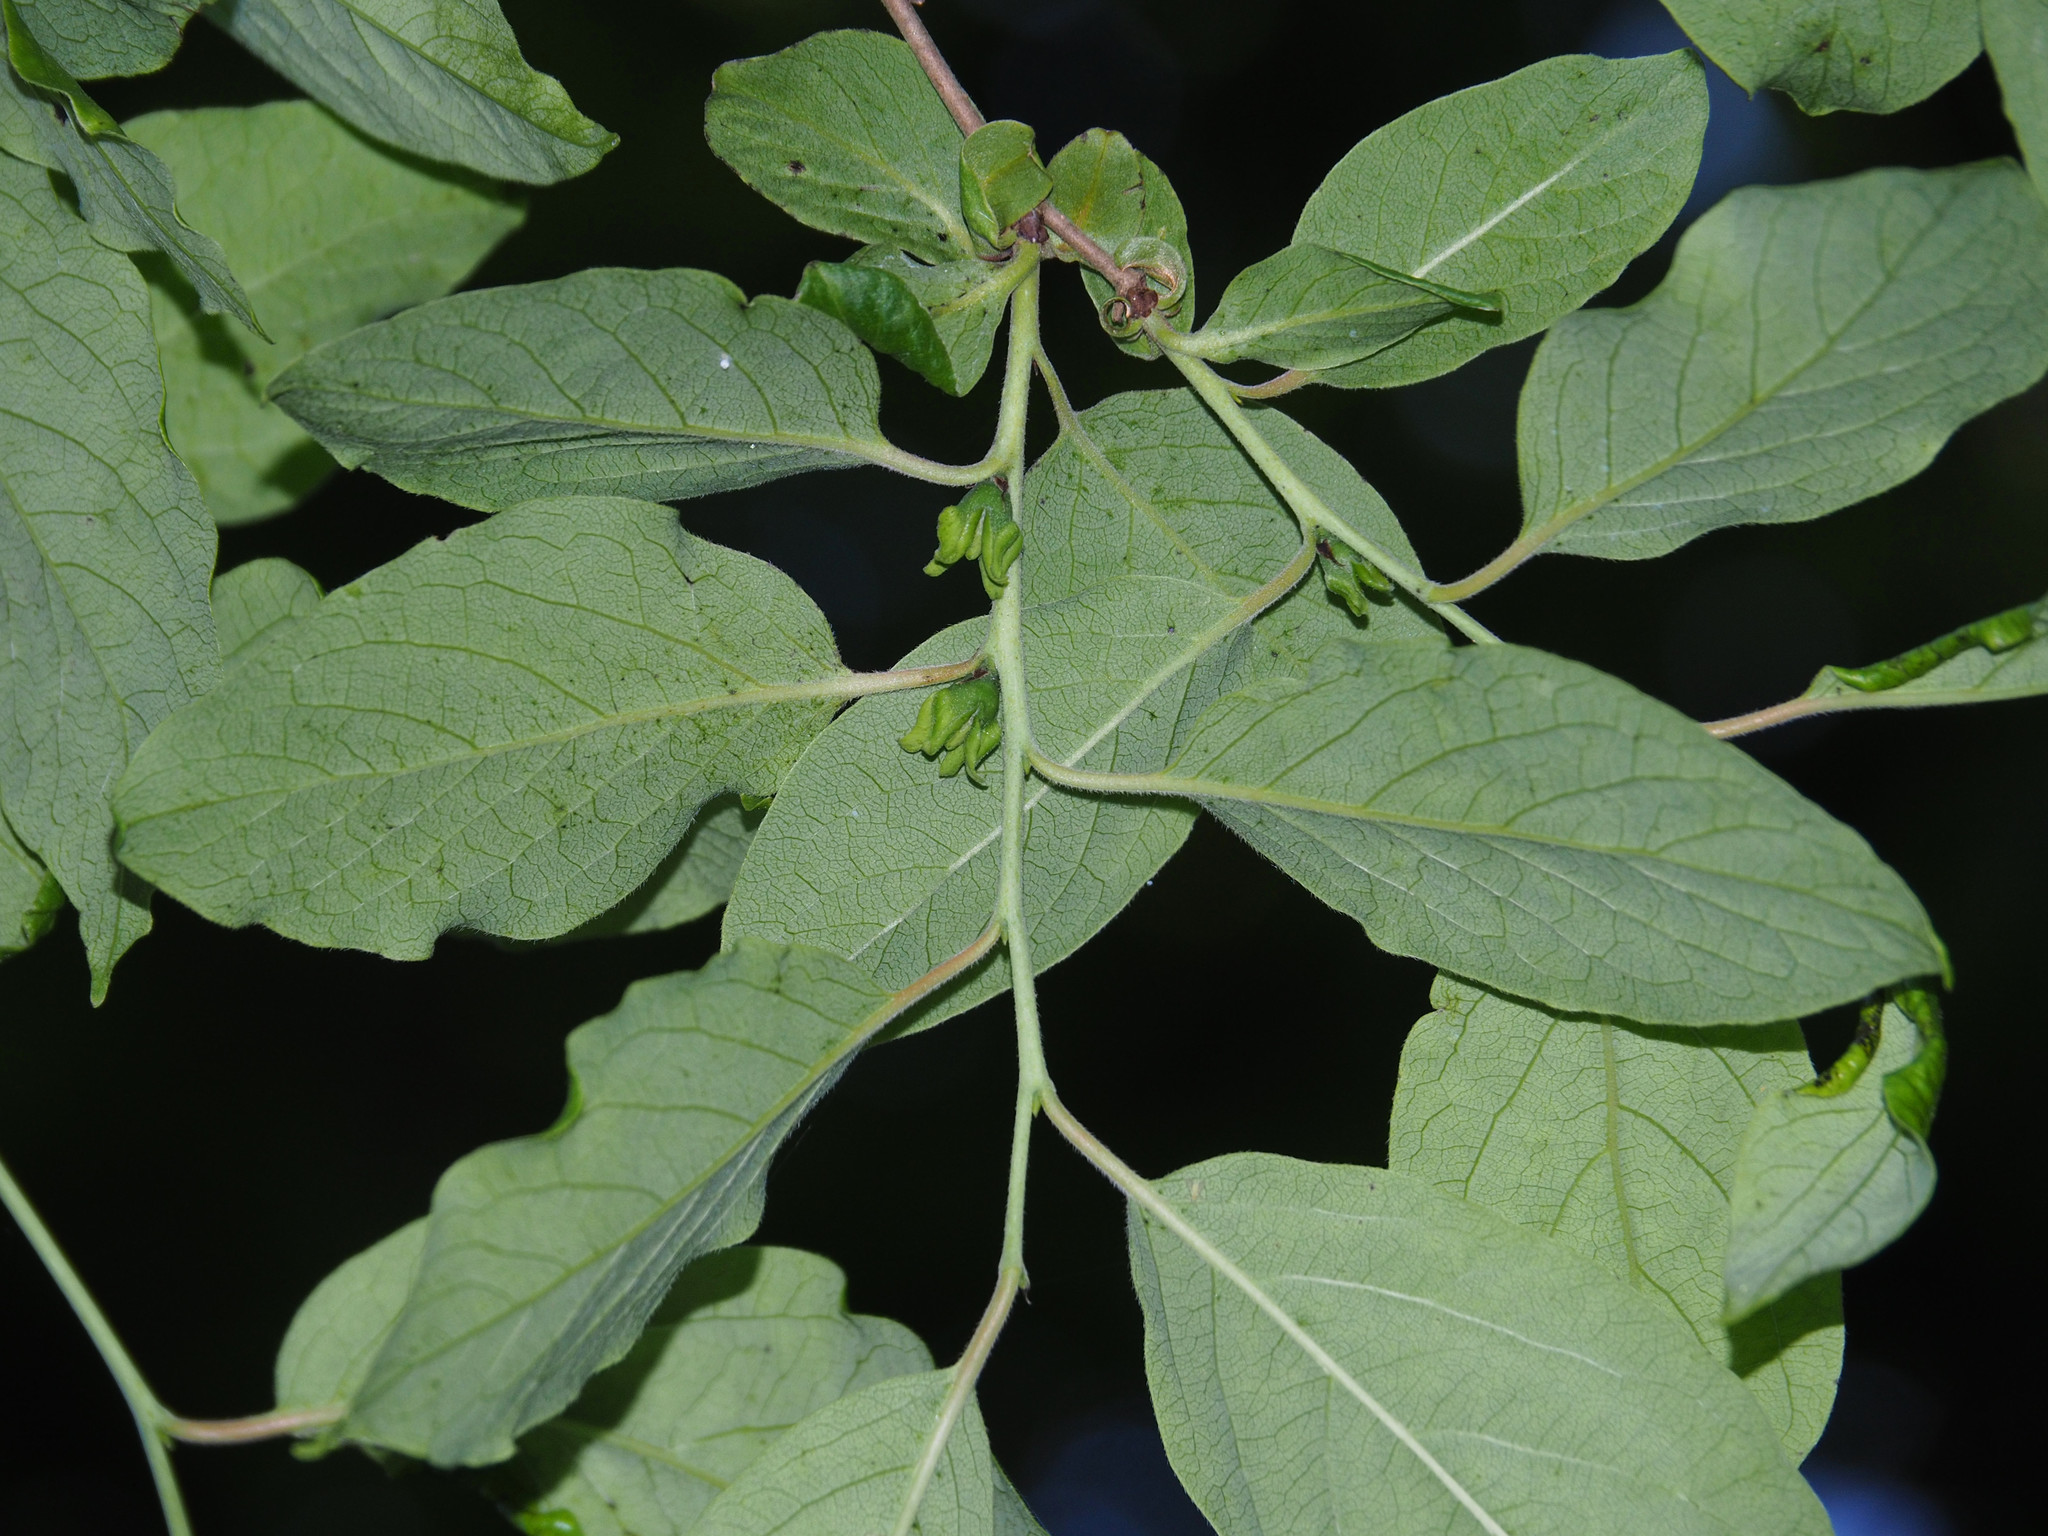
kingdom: Plantae
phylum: Tracheophyta
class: Magnoliopsida
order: Ericales
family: Ebenaceae
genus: Diospyros
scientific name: Diospyros virginiana
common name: Persimmon
